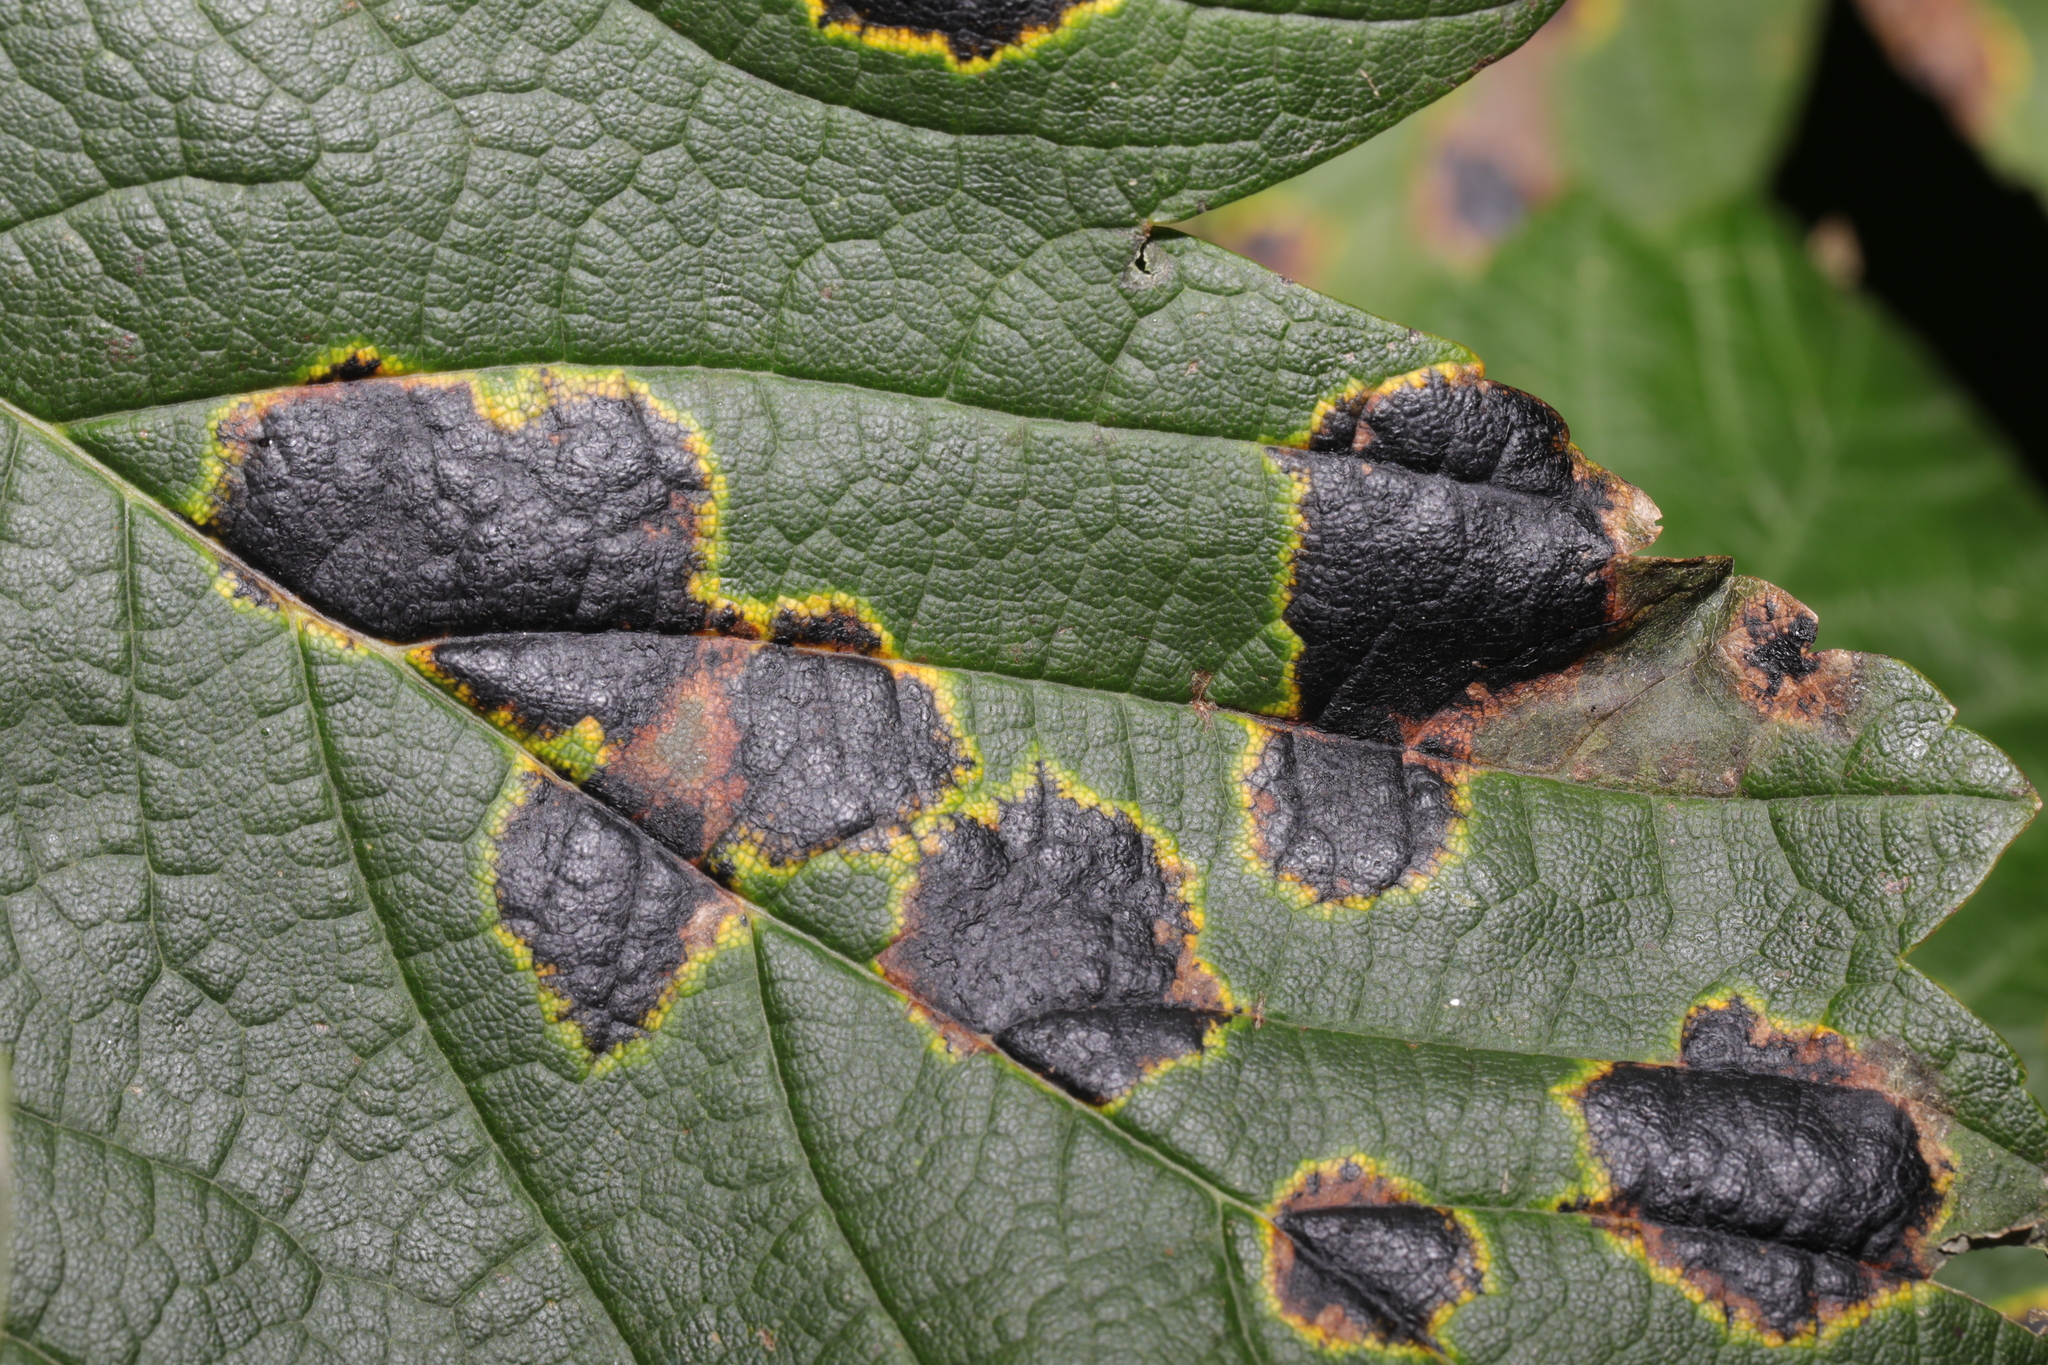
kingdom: Fungi
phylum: Ascomycota
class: Leotiomycetes
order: Rhytismatales
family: Rhytismataceae
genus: Rhytisma
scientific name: Rhytisma acerinum
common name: European tar spot
